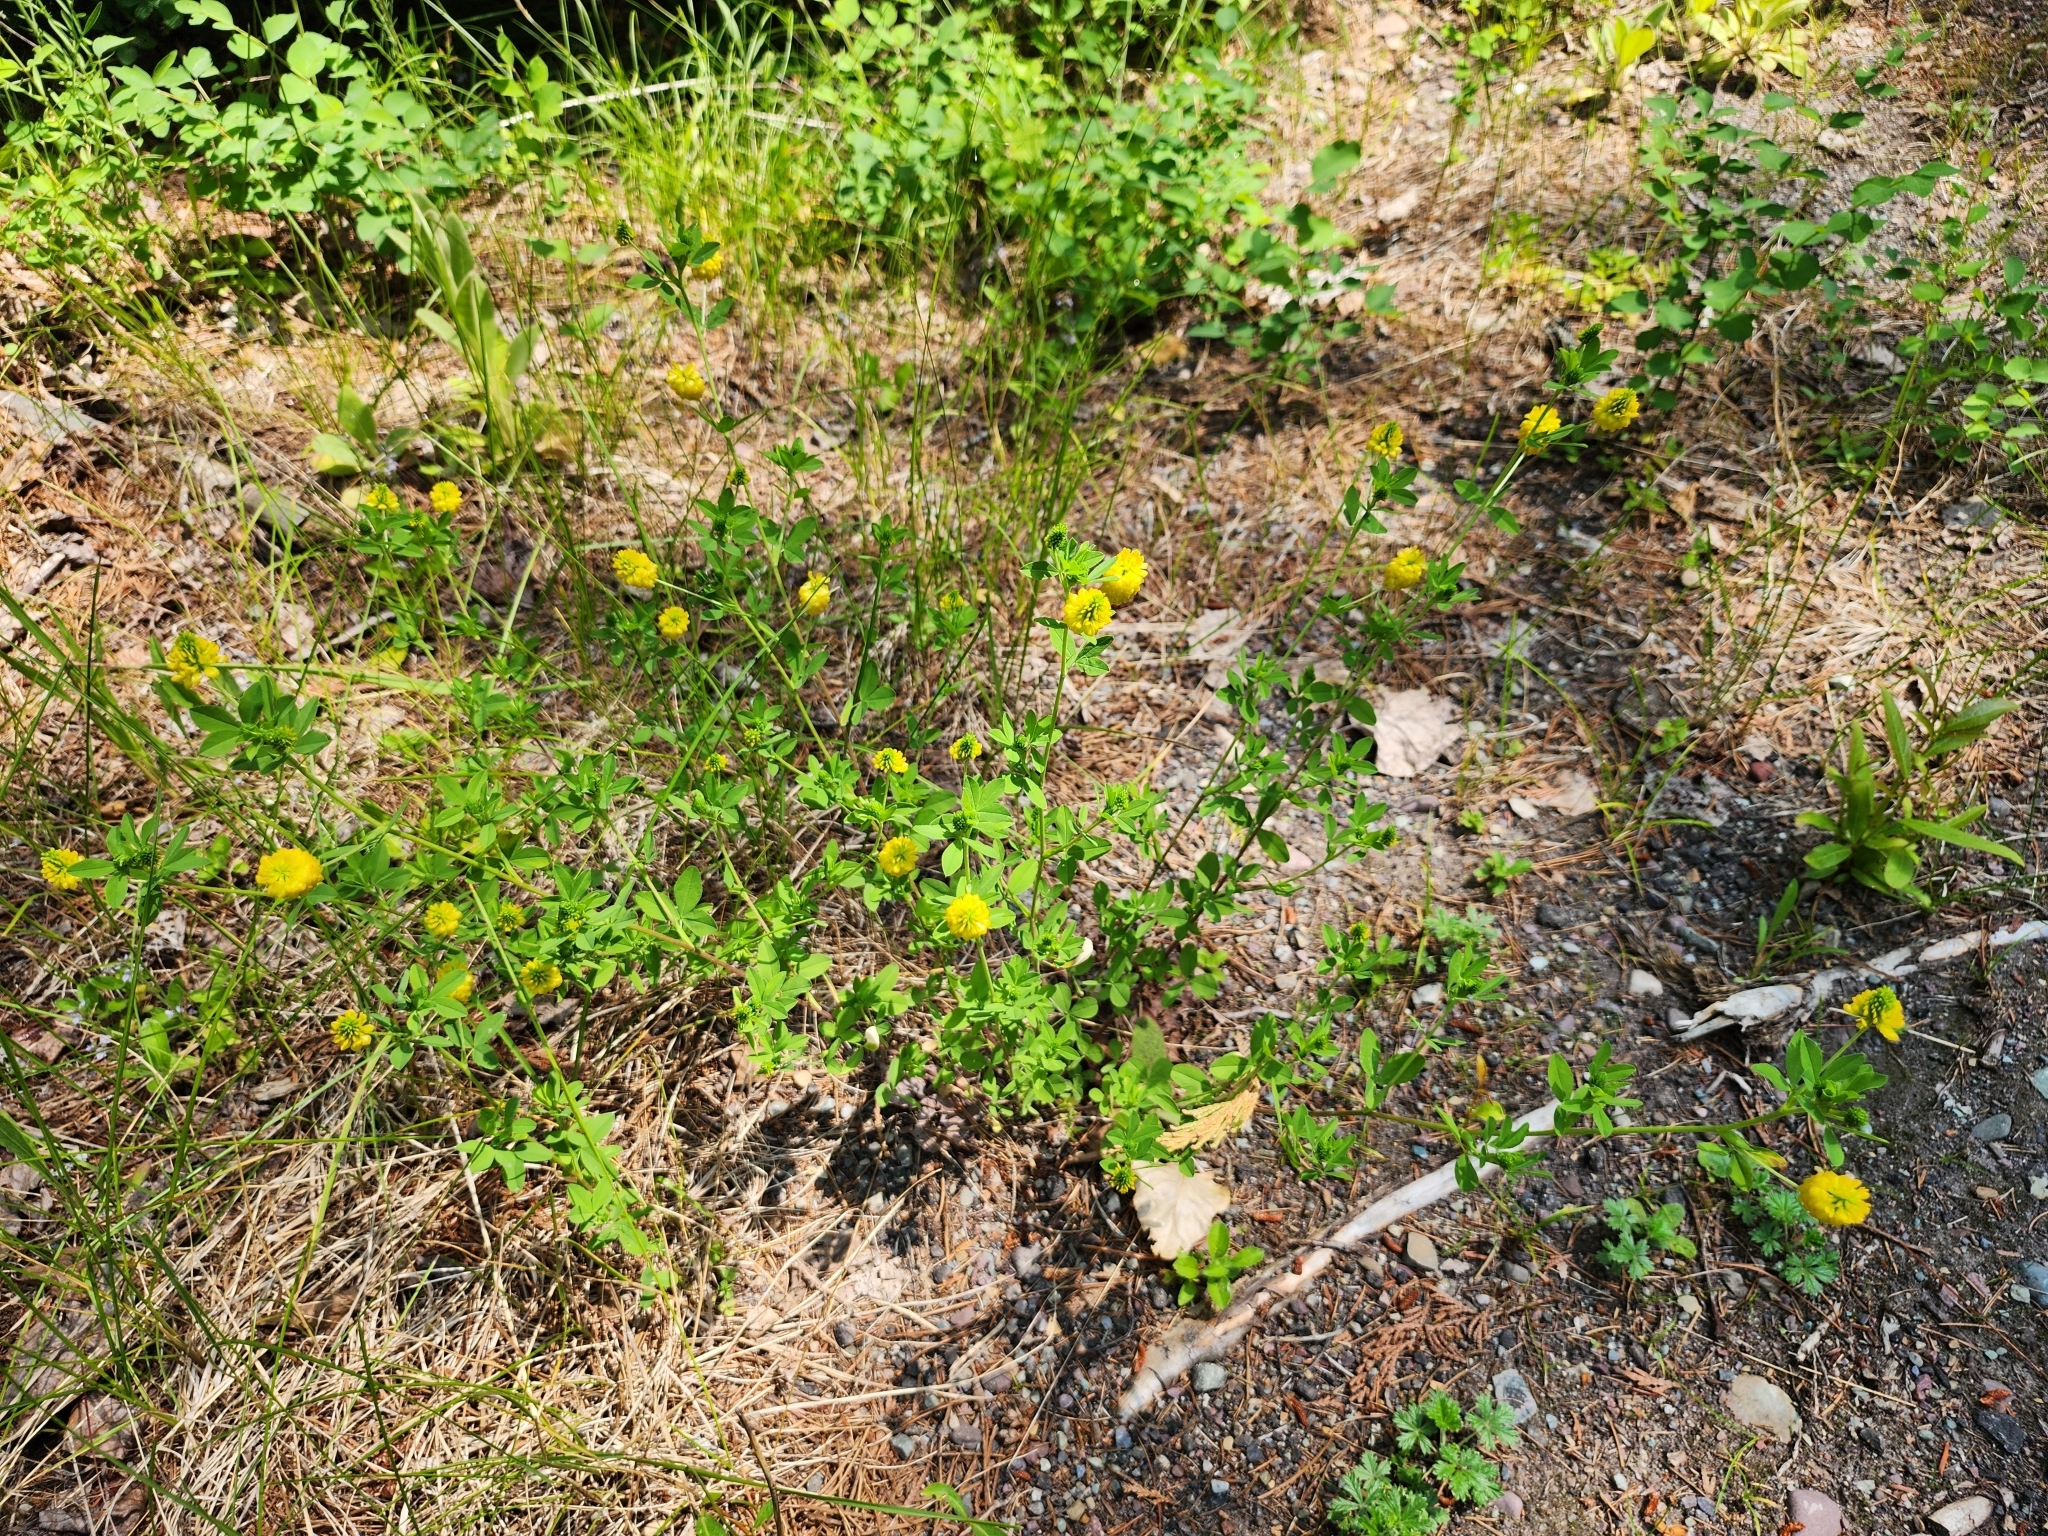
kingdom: Plantae
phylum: Tracheophyta
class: Magnoliopsida
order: Fabales
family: Fabaceae
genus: Trifolium
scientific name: Trifolium aureum
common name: Golden clover
